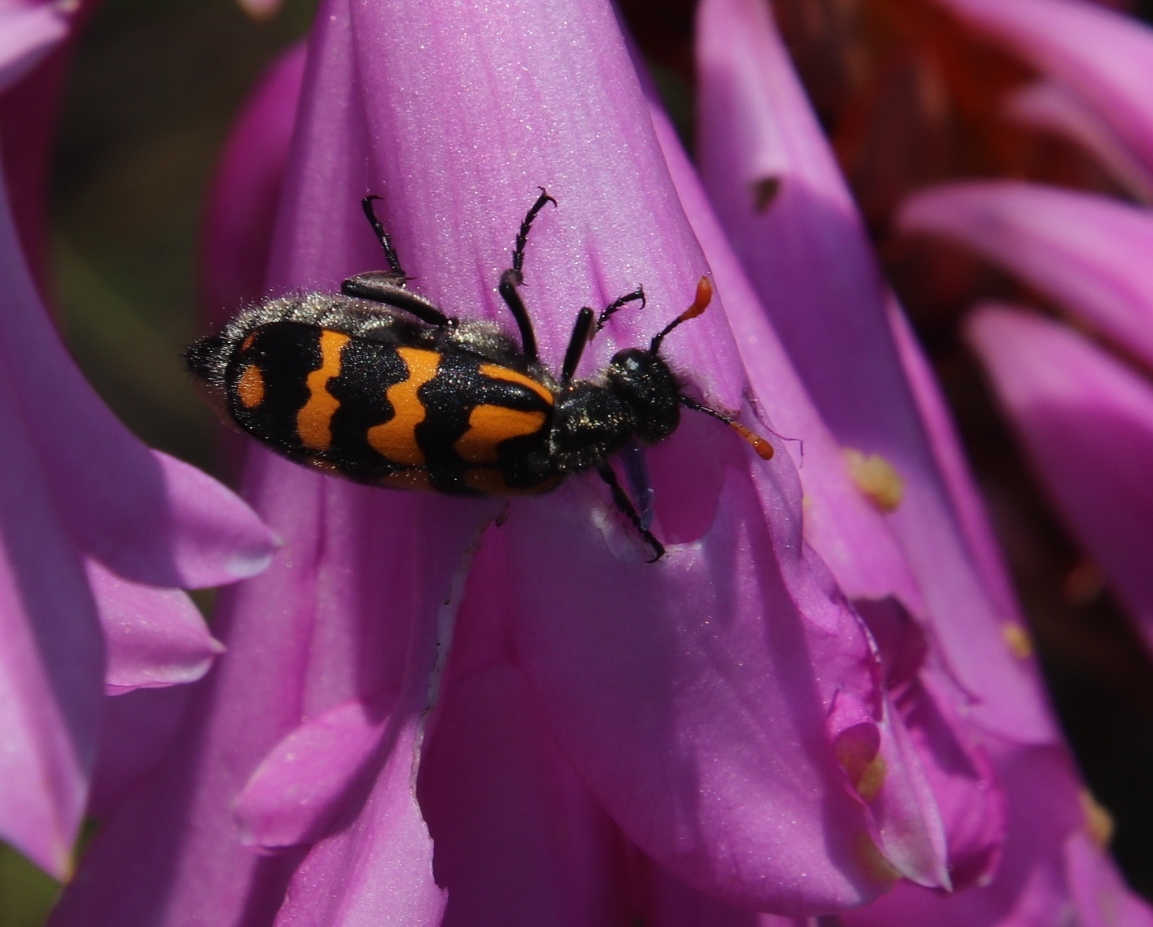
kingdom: Animalia
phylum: Arthropoda
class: Insecta
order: Coleoptera
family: Meloidae
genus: Hycleus
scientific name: Hycleus pilosus
